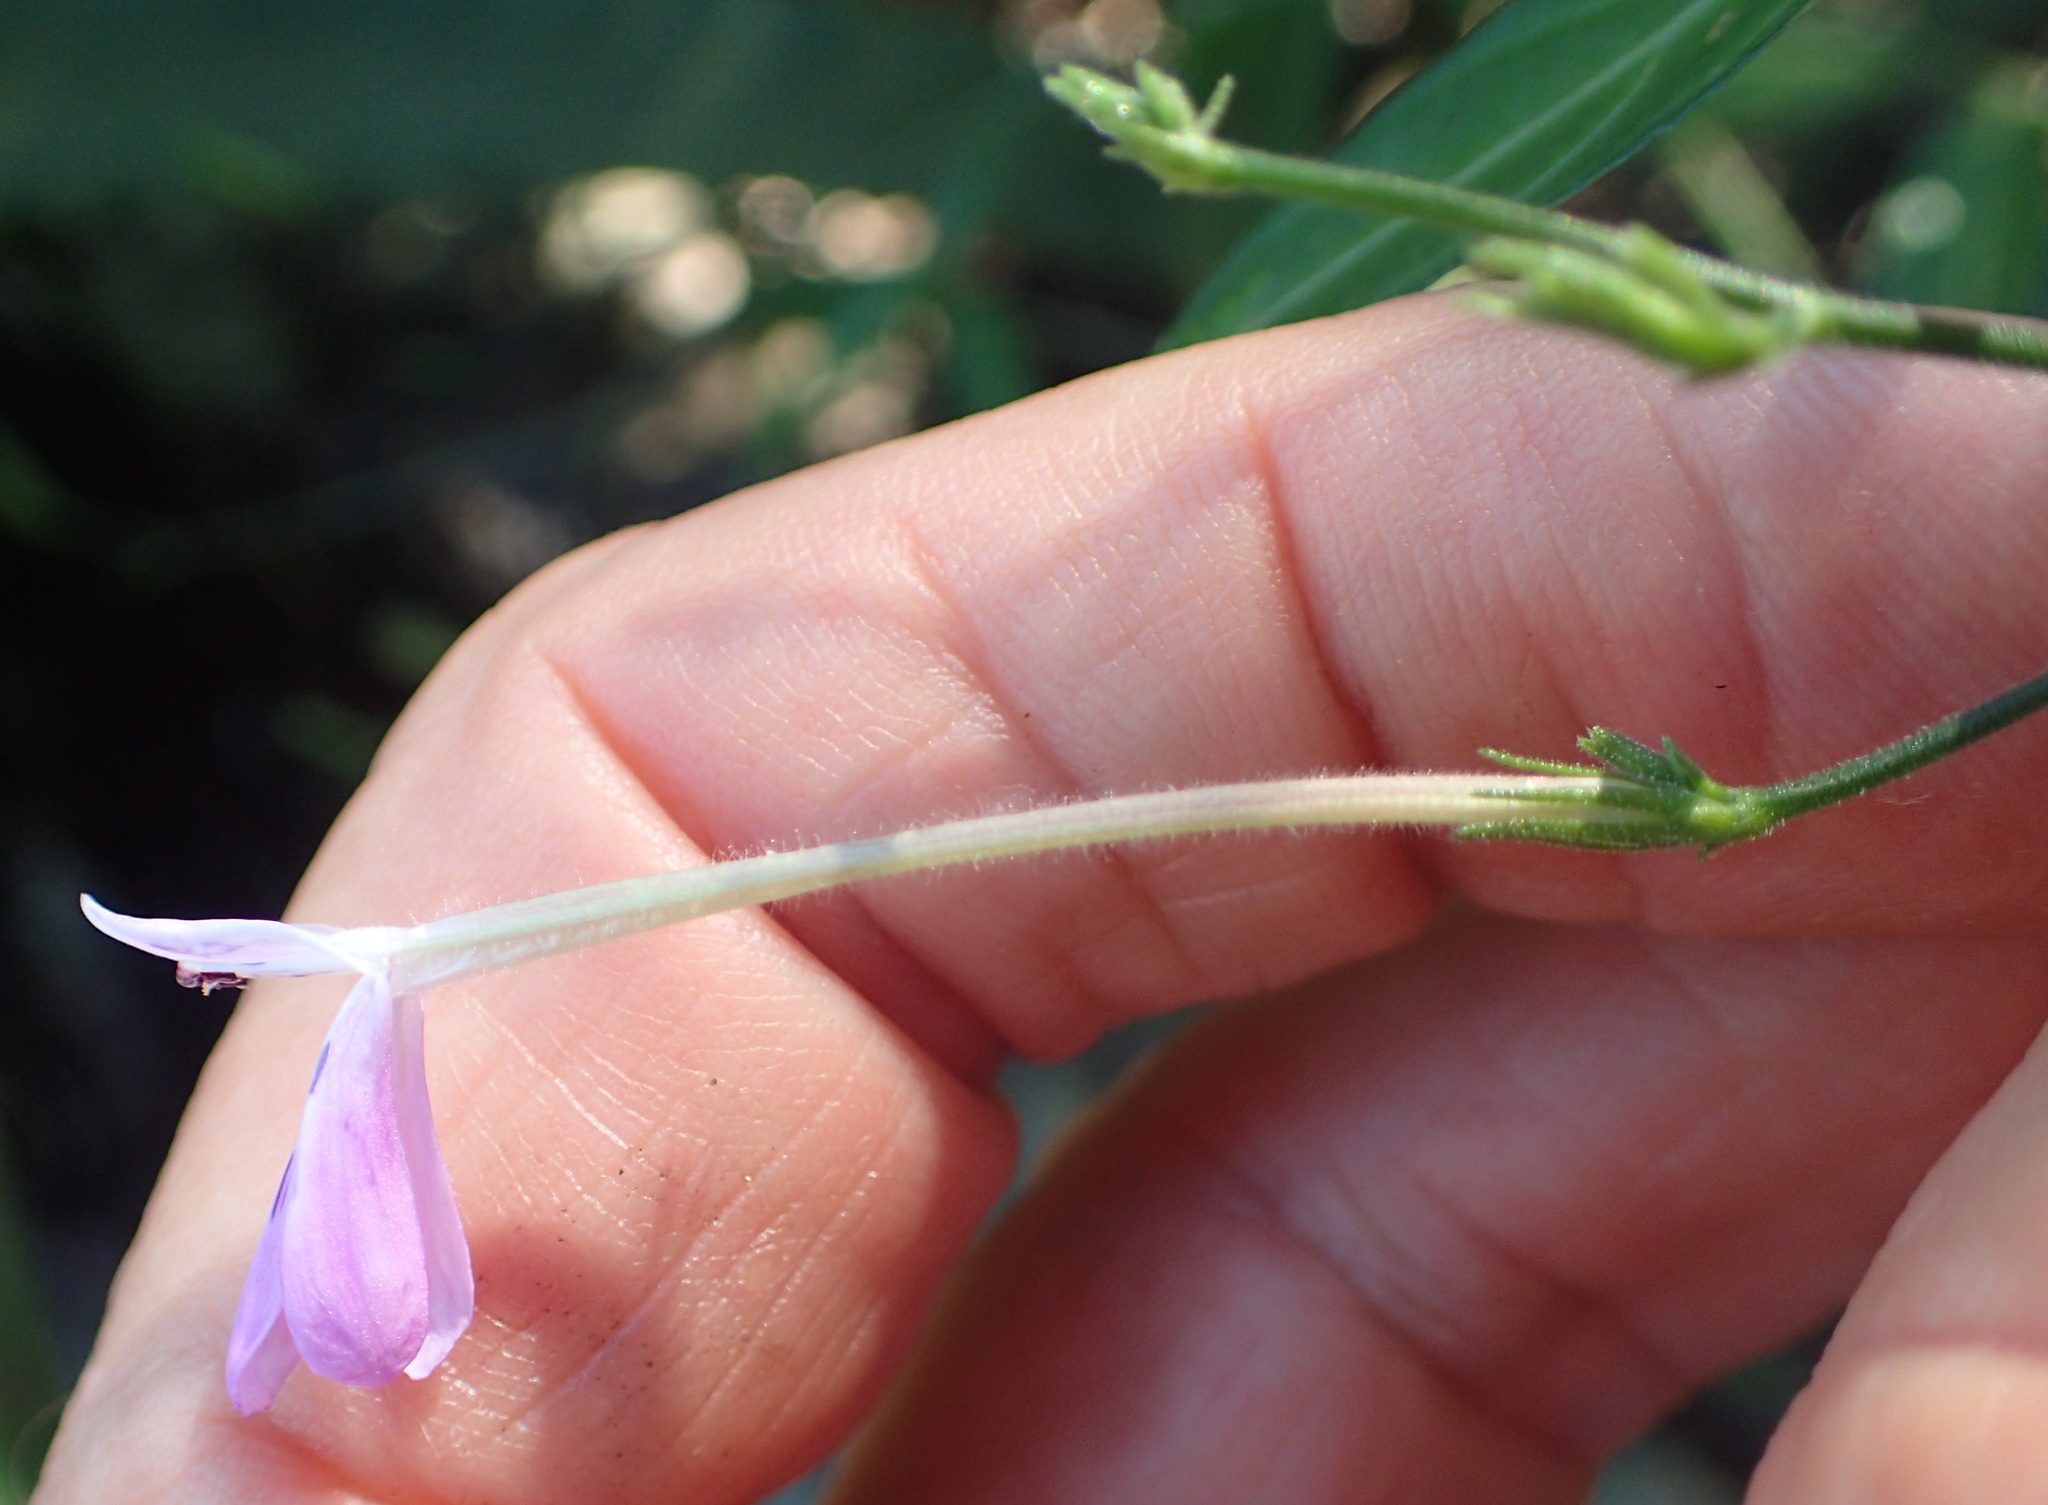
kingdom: Plantae
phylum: Tracheophyta
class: Magnoliopsida
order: Lamiales
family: Acanthaceae
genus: Rhinacanthus
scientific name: Rhinacanthus latilabiatus
